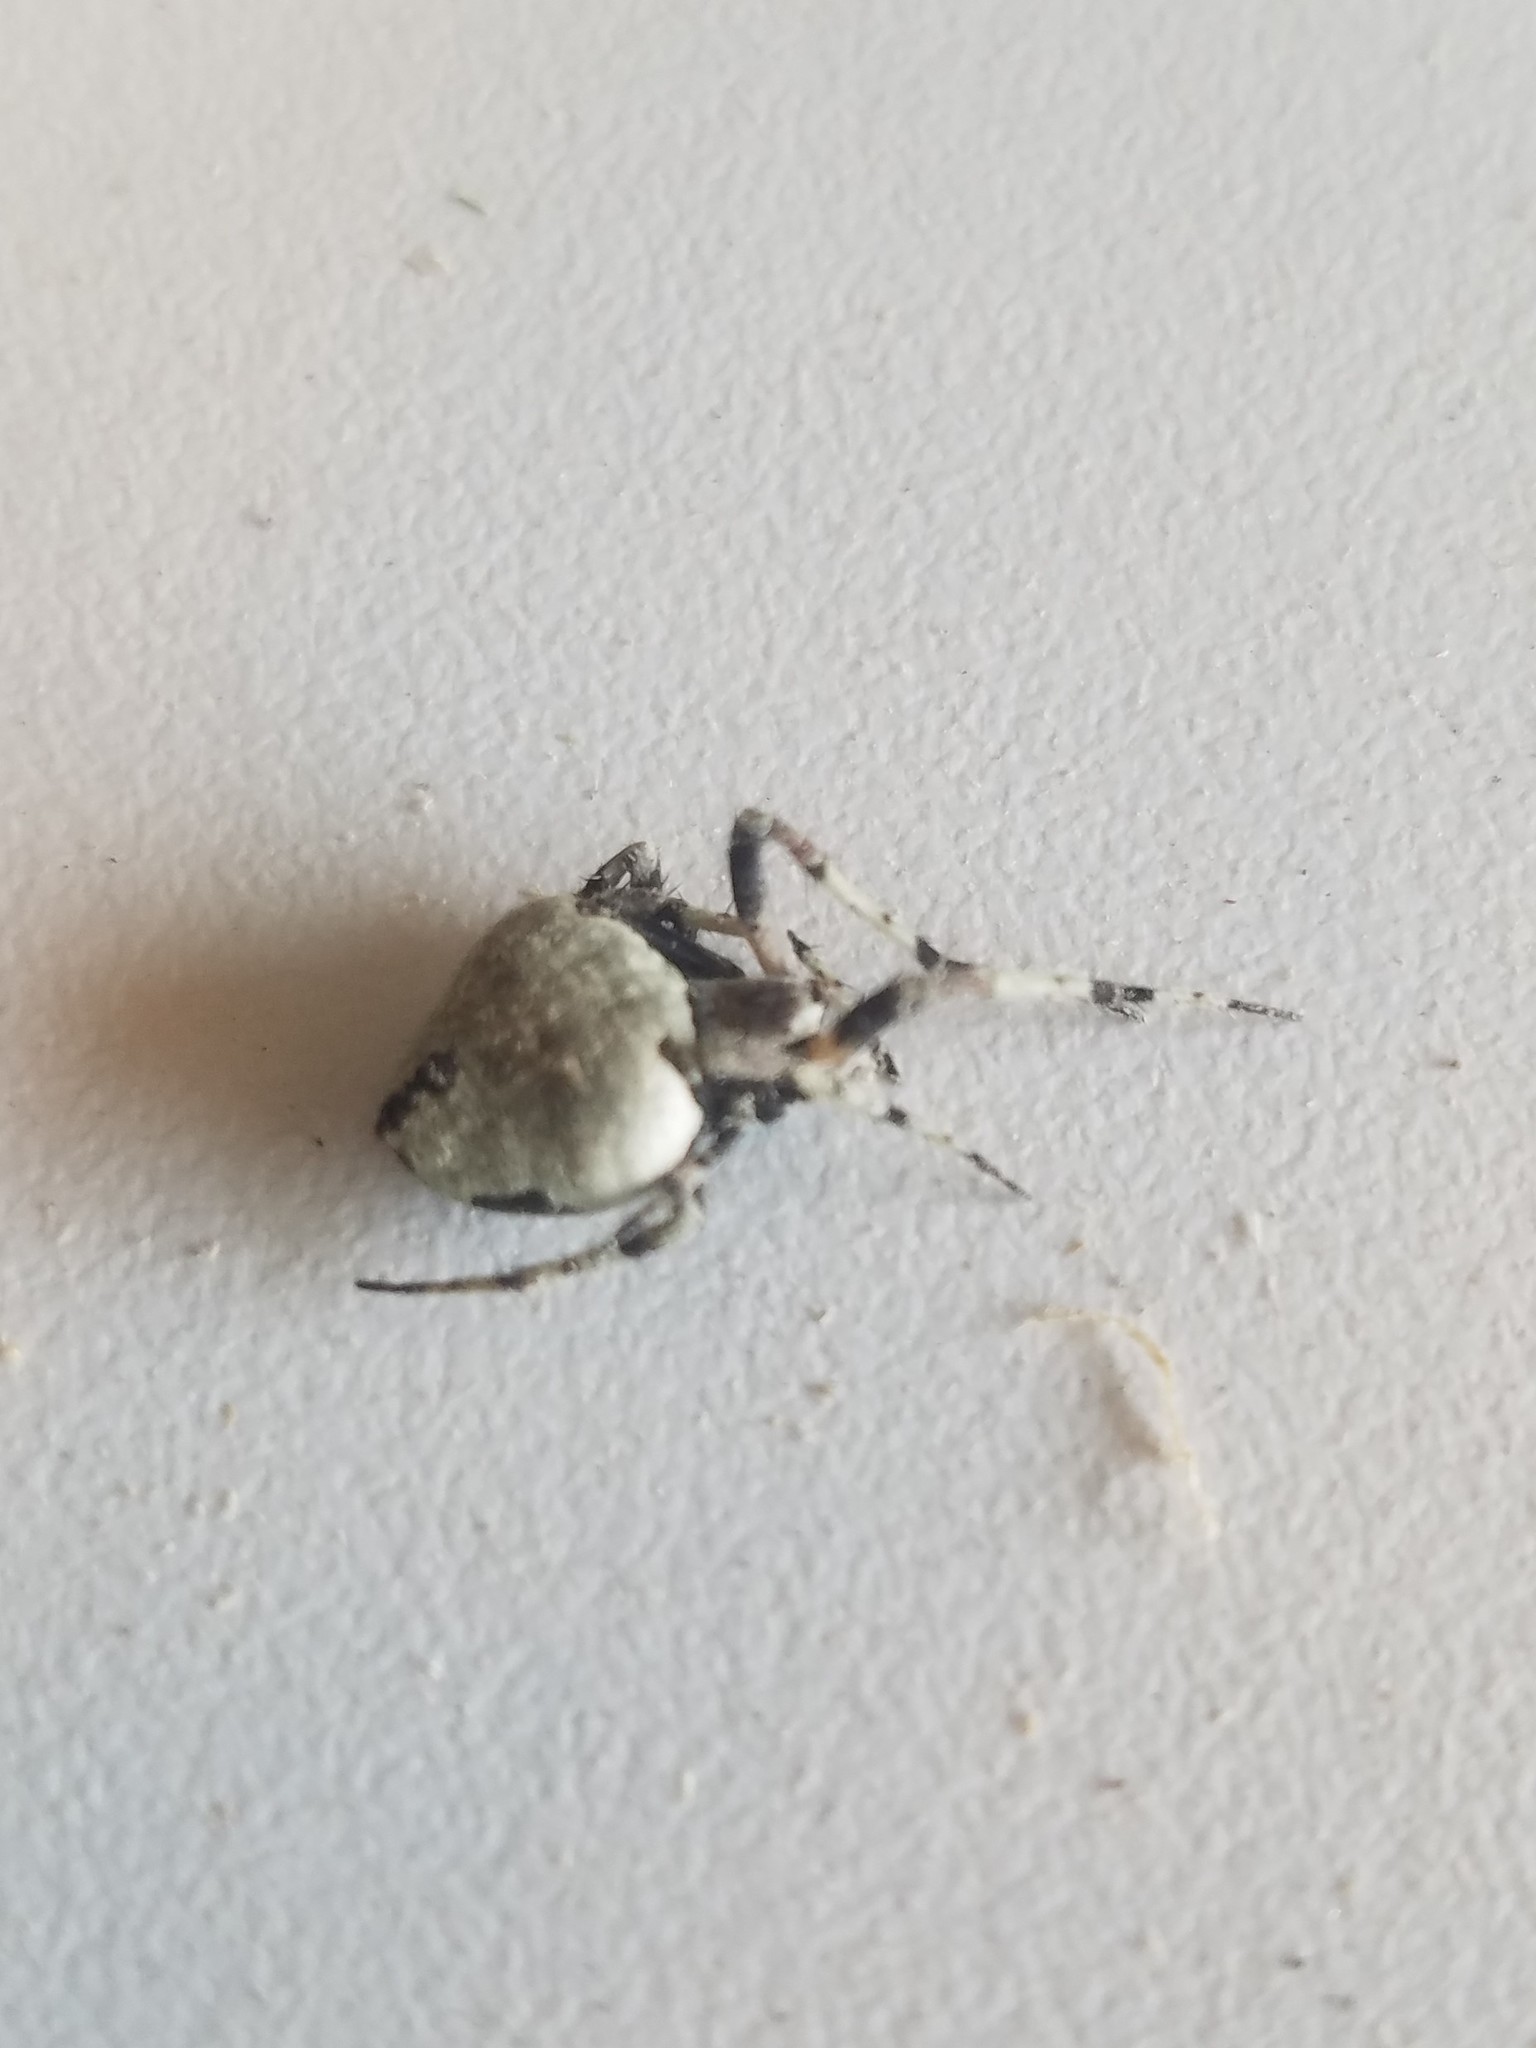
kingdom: Animalia
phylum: Arthropoda
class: Arachnida
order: Araneae
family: Araneidae
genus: Eustala
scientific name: Eustala anastera
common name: Orb weavers
